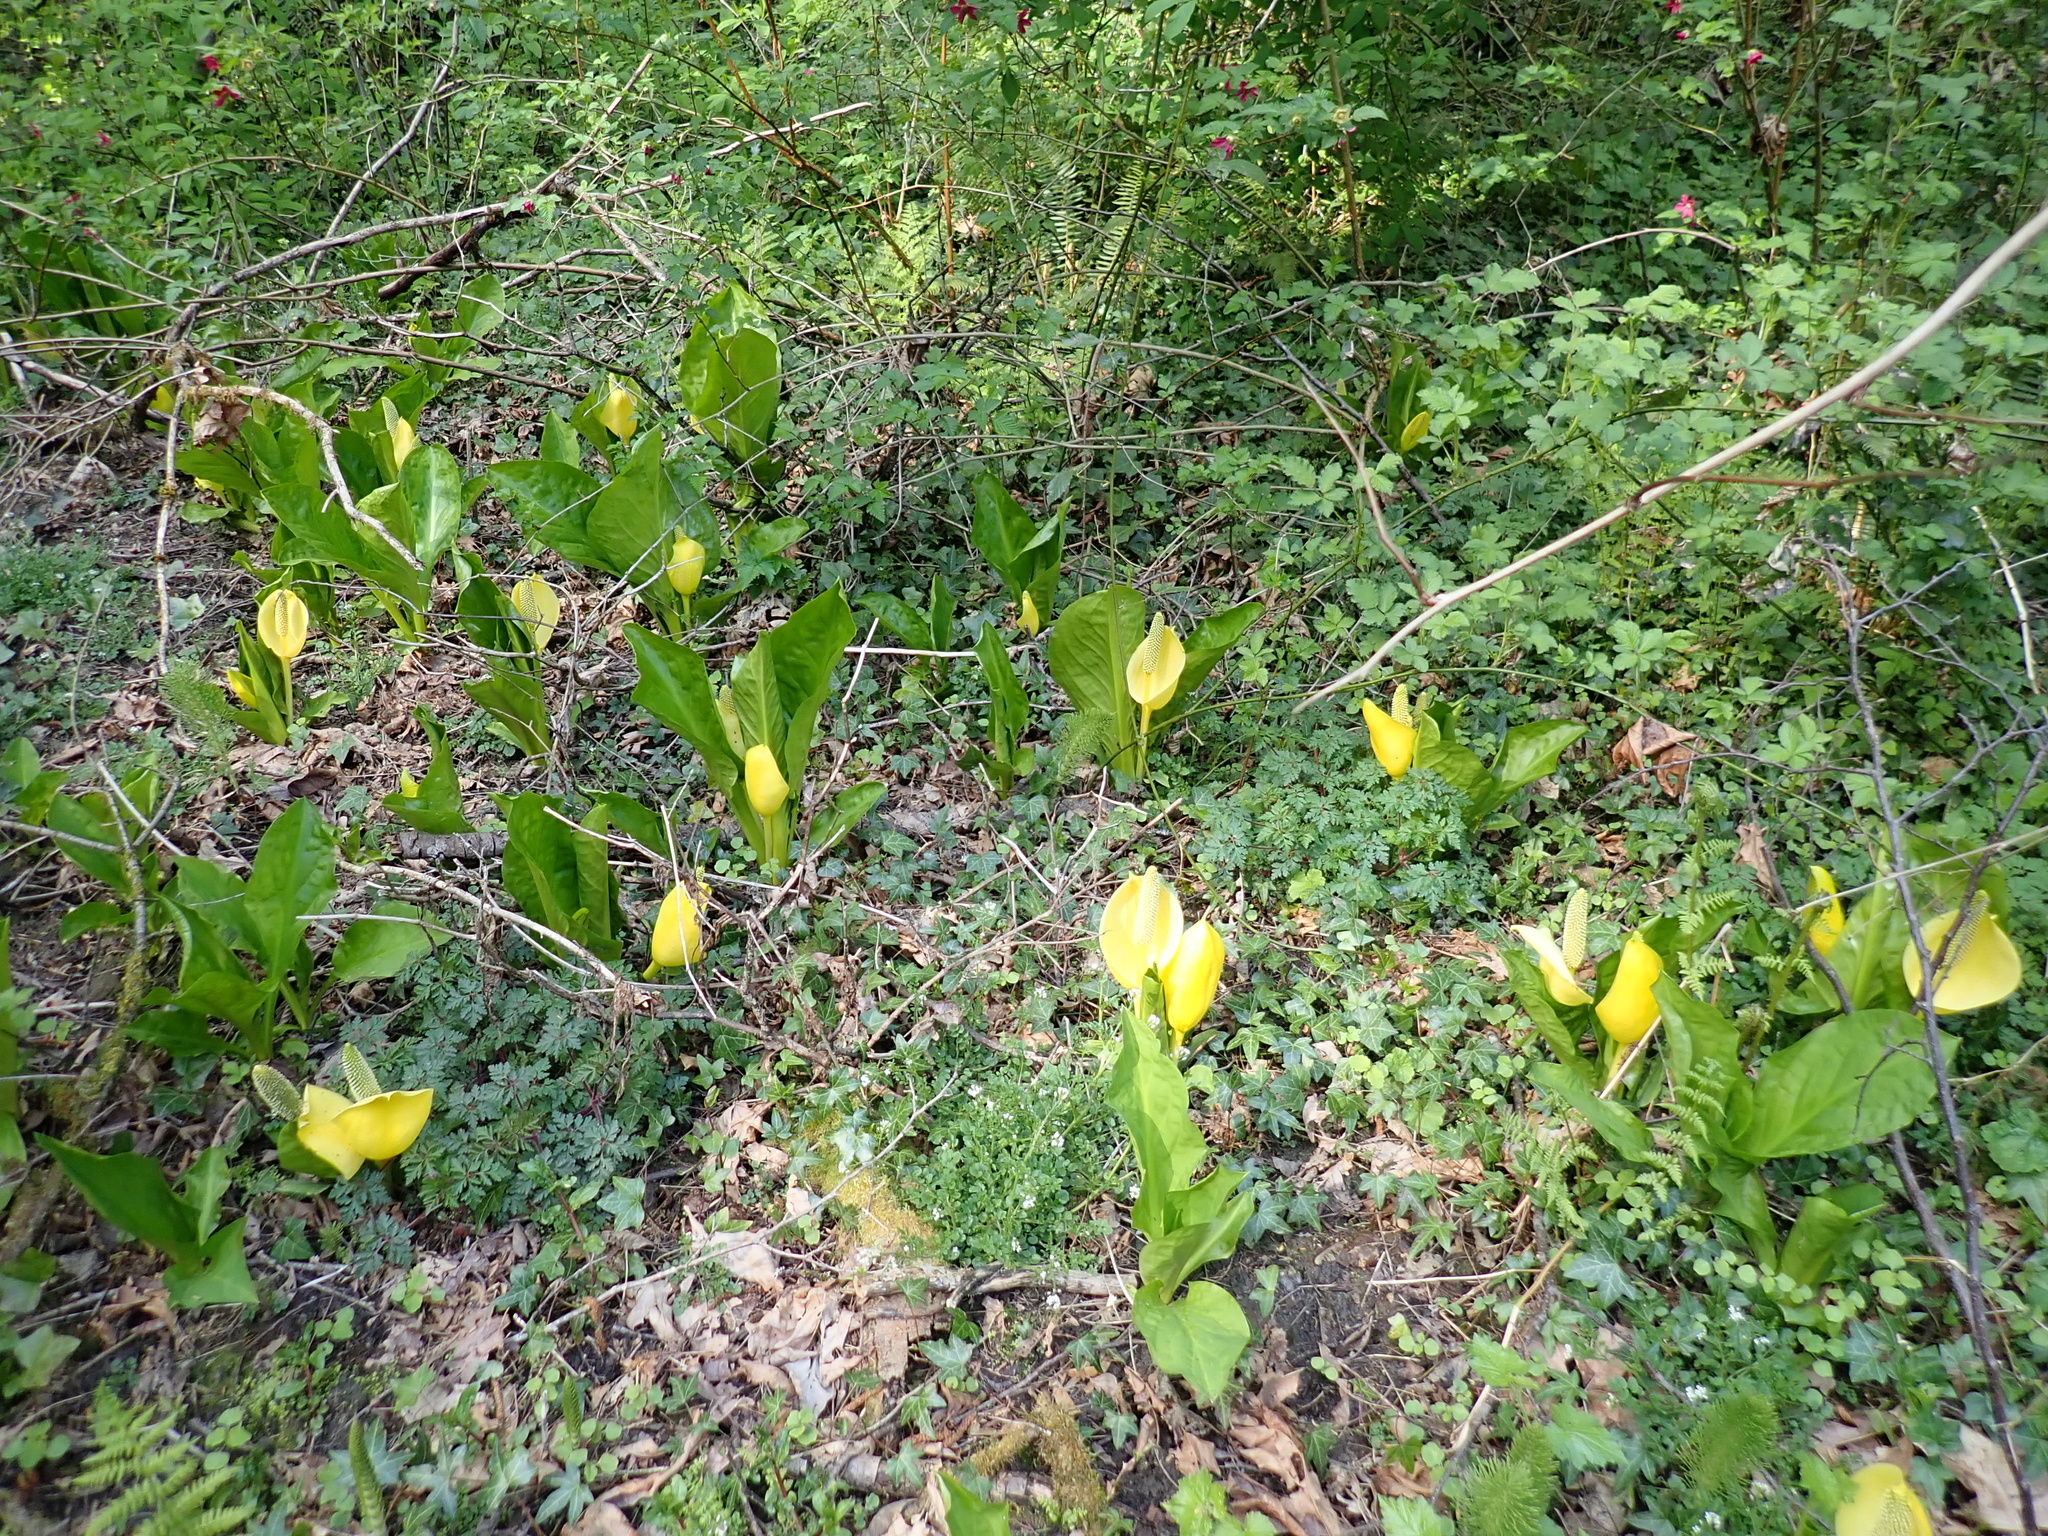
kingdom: Plantae
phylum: Tracheophyta
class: Liliopsida
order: Alismatales
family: Araceae
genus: Lysichiton
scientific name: Lysichiton americanus
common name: American skunk cabbage
